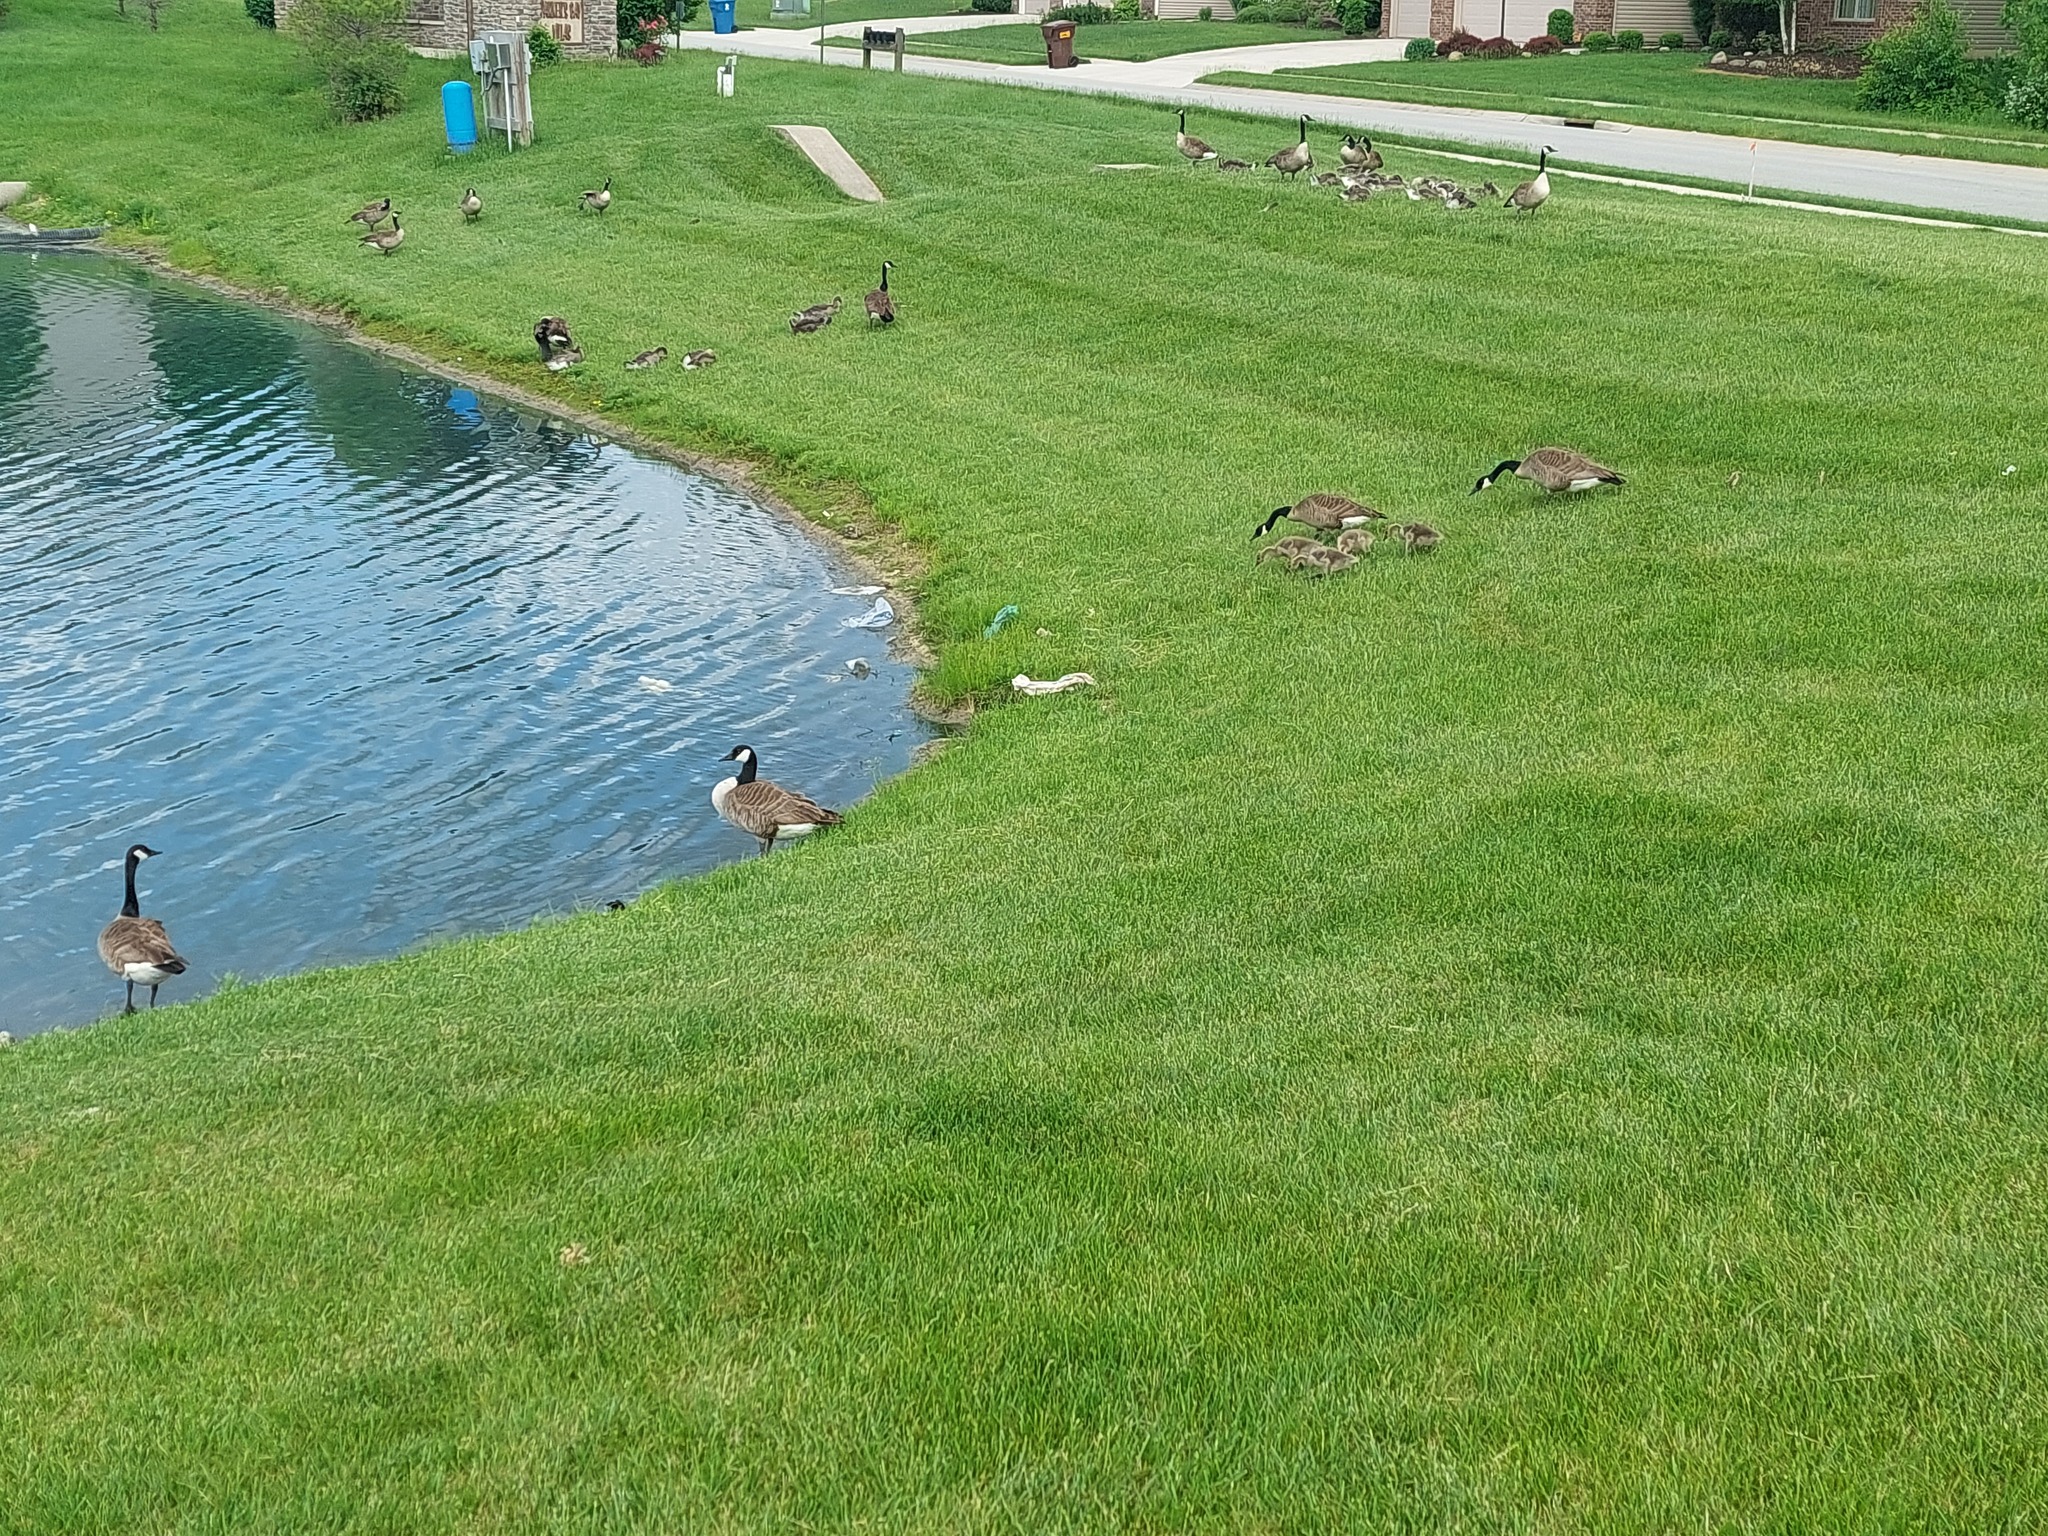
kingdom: Animalia
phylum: Chordata
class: Aves
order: Anseriformes
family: Anatidae
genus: Branta
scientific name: Branta canadensis
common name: Canada goose
